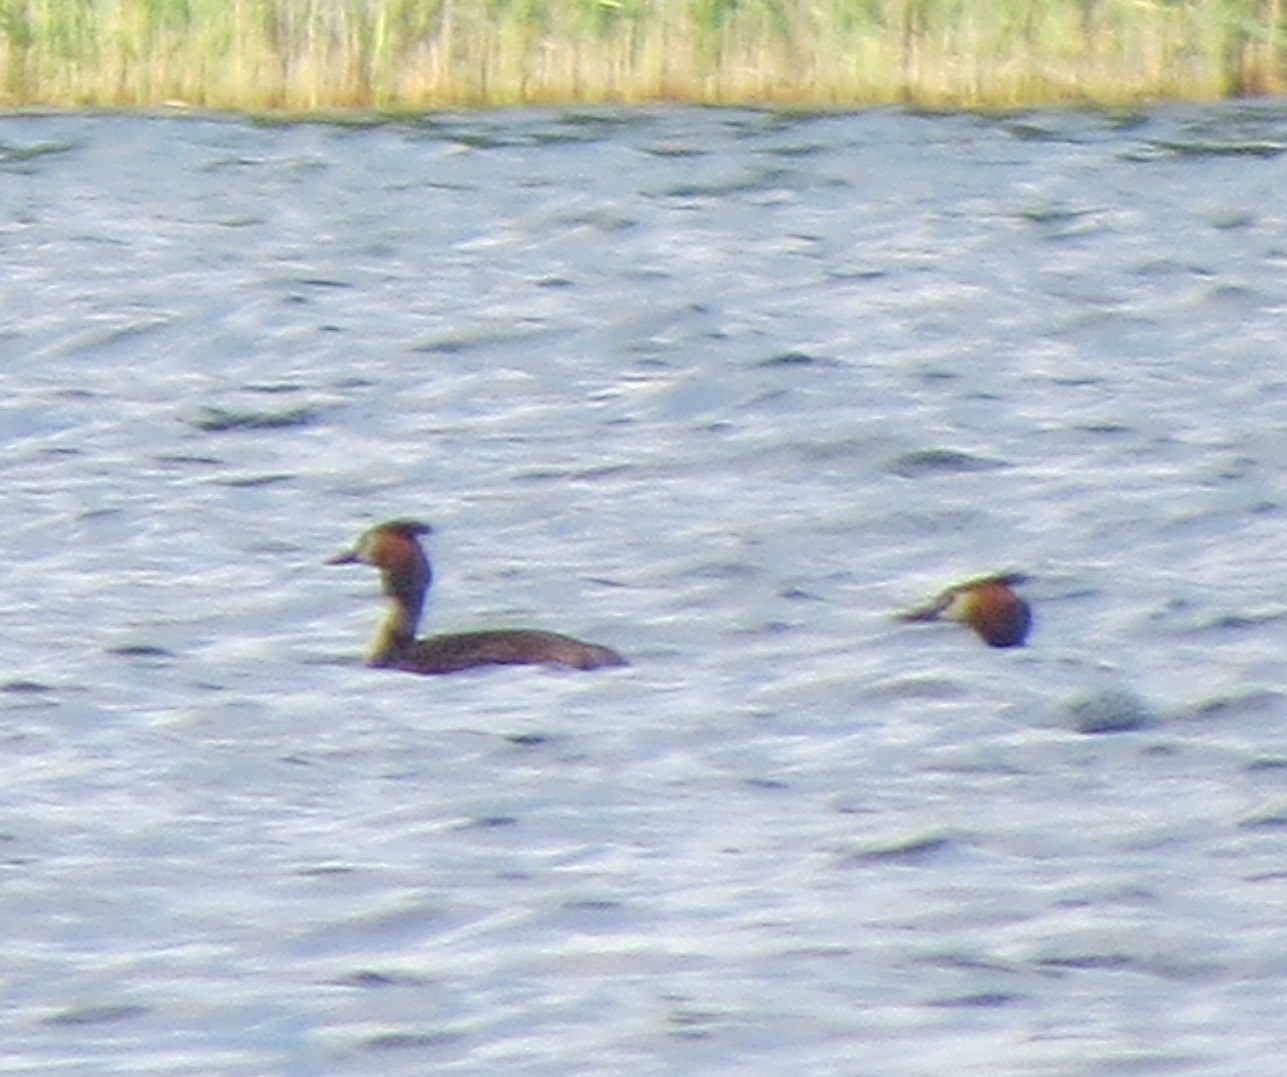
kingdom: Animalia
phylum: Chordata
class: Aves
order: Podicipediformes
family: Podicipedidae
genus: Podiceps
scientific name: Podiceps cristatus
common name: Great crested grebe
